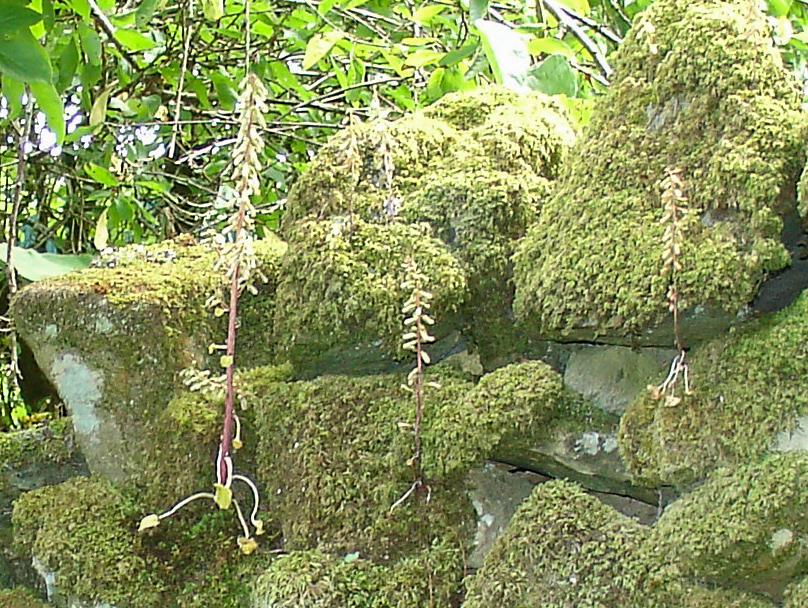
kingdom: Plantae
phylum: Tracheophyta
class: Magnoliopsida
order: Saxifragales
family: Crassulaceae
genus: Umbilicus
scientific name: Umbilicus rupestris
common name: Navelwort
